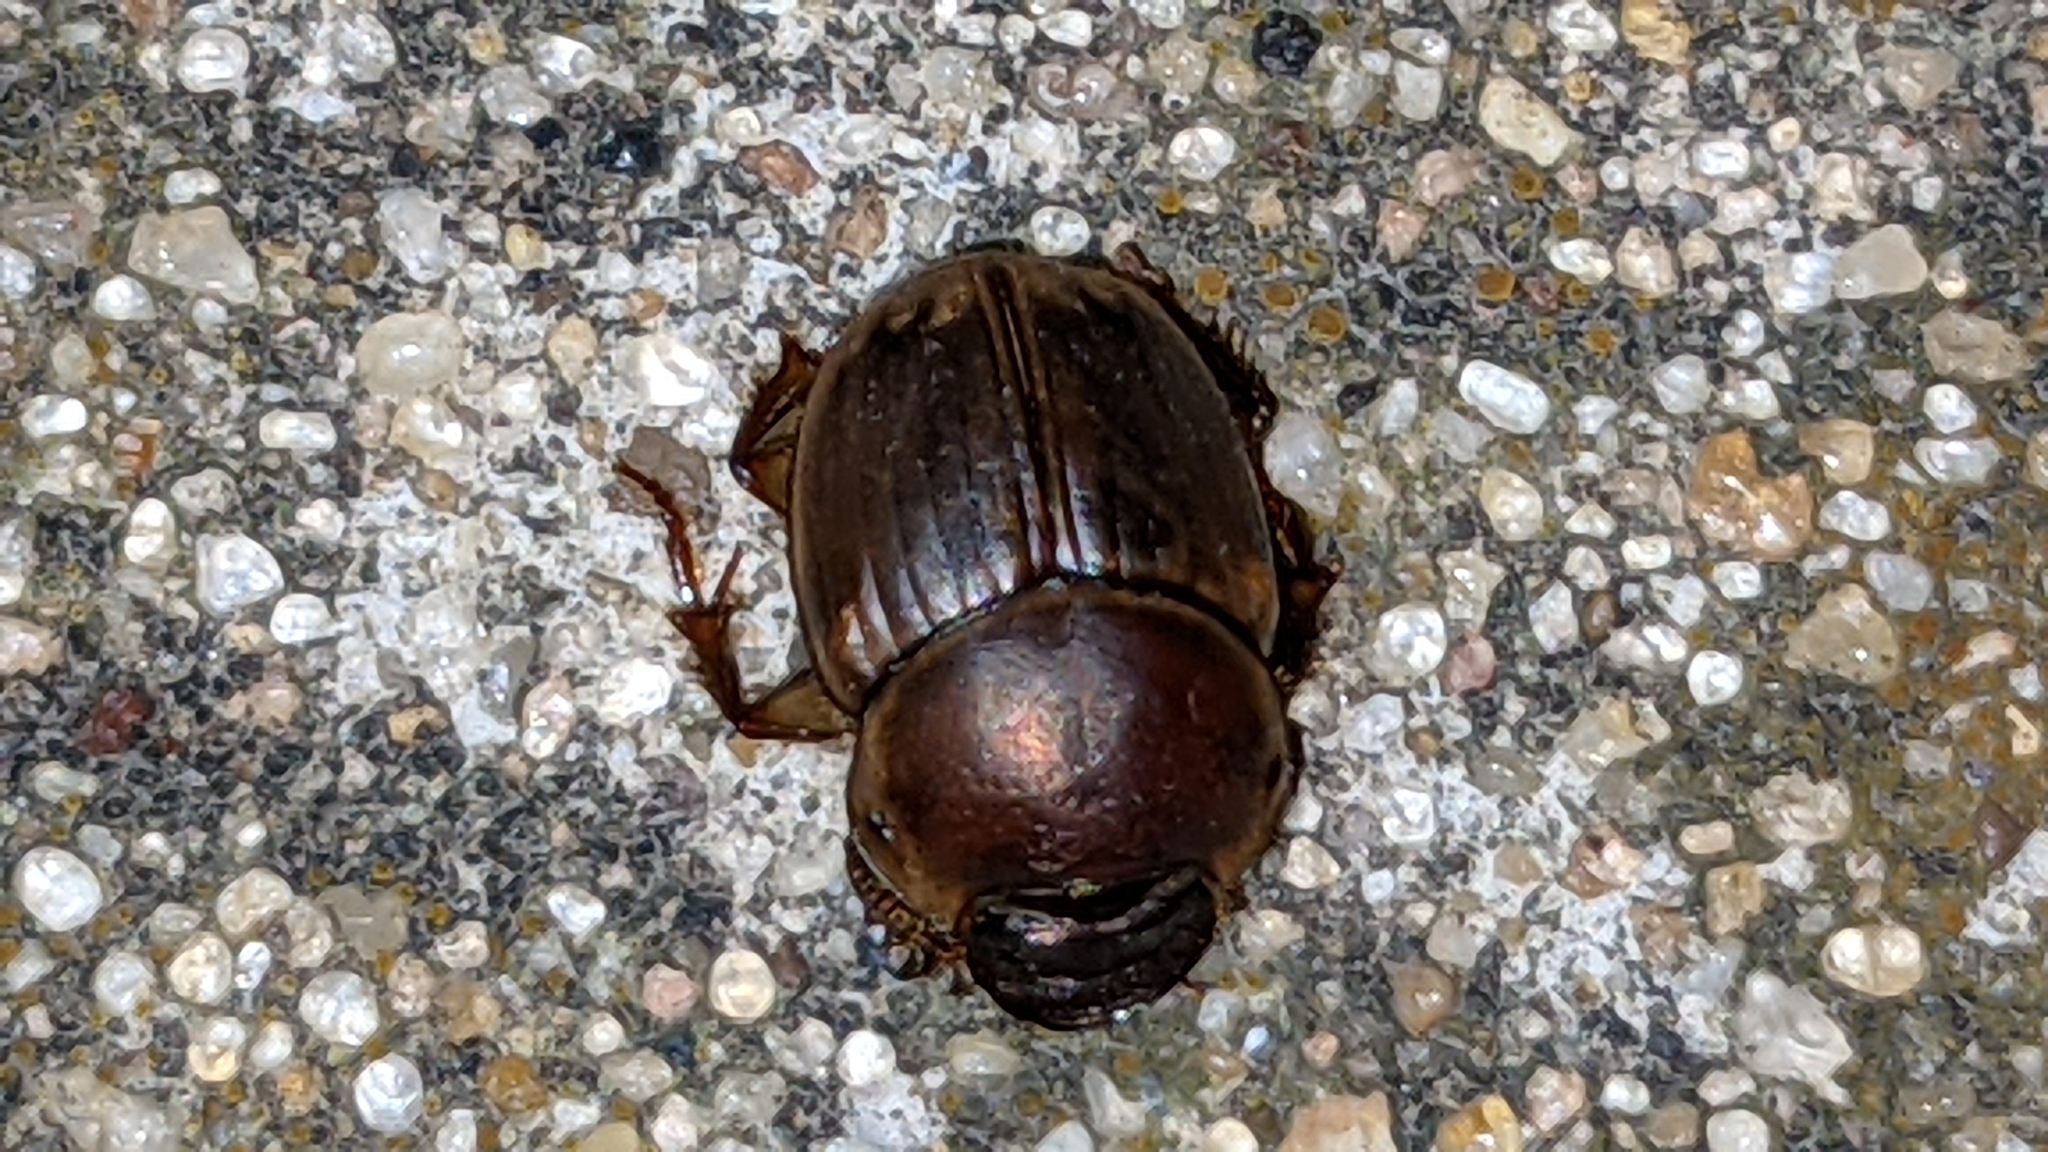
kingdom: Animalia
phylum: Arthropoda
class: Insecta
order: Coleoptera
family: Scarabaeidae
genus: Digitonthophagus
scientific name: Digitonthophagus gazella
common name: Brown dung beetle
